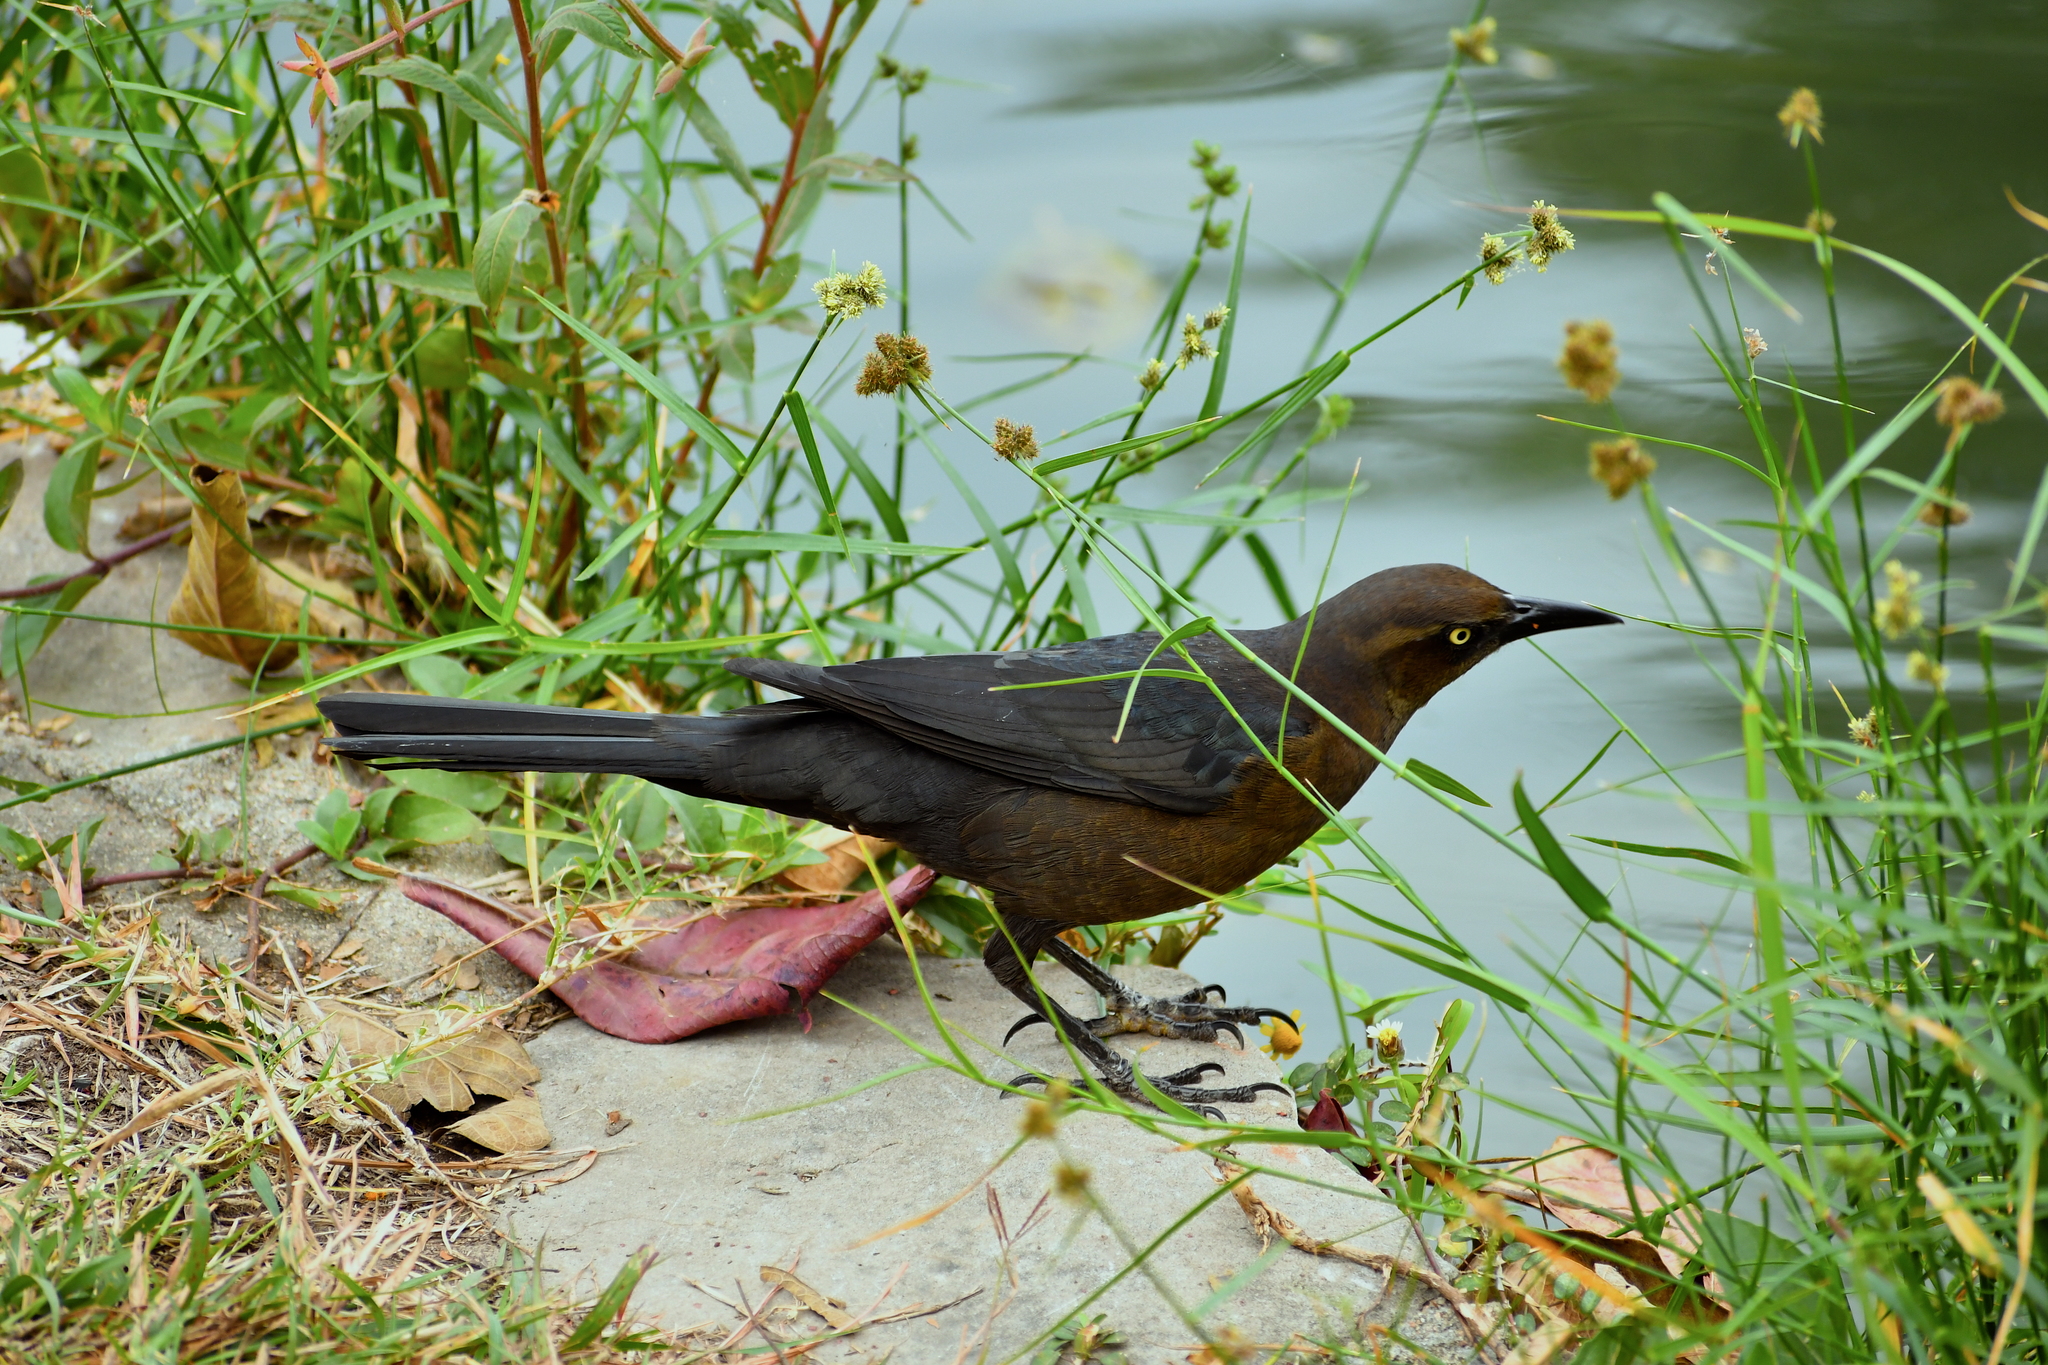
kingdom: Animalia
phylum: Chordata
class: Aves
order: Passeriformes
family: Icteridae
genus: Quiscalus
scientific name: Quiscalus mexicanus
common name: Great-tailed grackle
